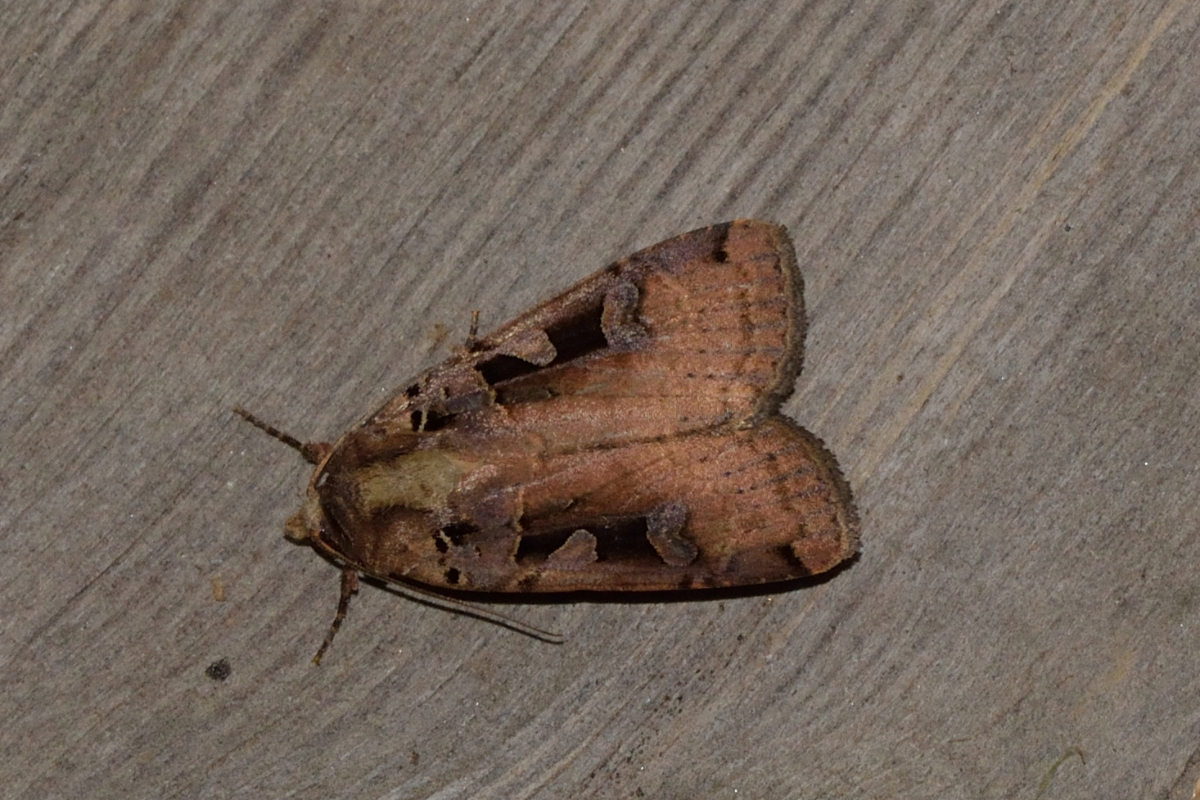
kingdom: Animalia
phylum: Arthropoda
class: Insecta
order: Lepidoptera
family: Noctuidae
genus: Xestia
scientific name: Xestia ditrapezium
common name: Triple-spotted clay
